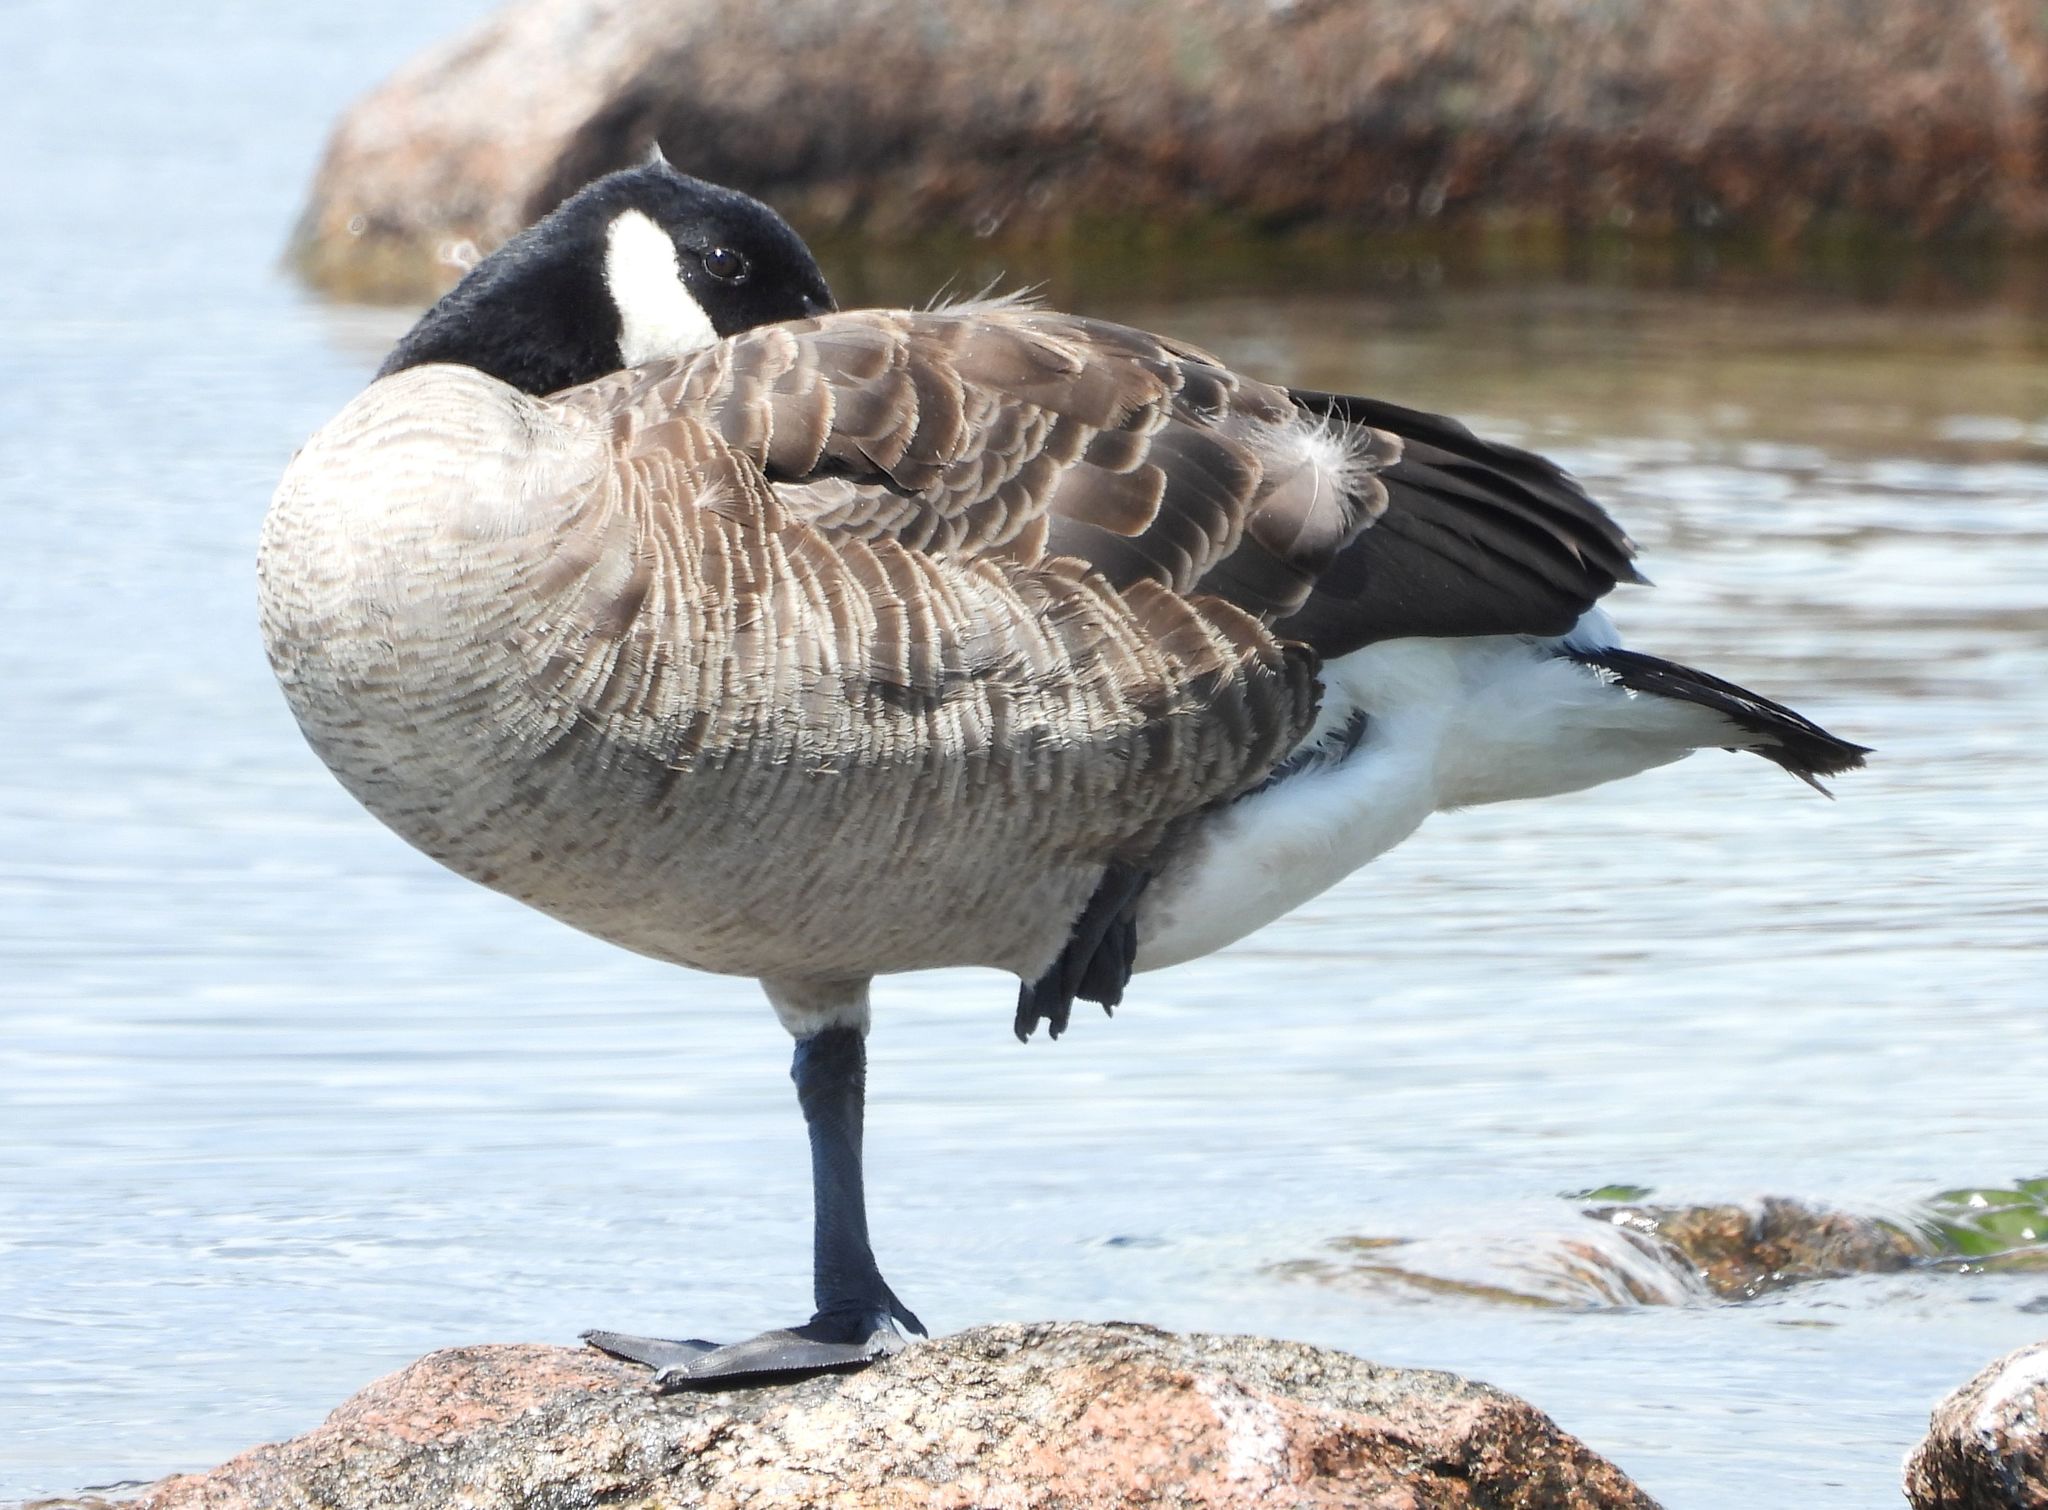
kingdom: Animalia
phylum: Chordata
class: Aves
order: Anseriformes
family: Anatidae
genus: Branta
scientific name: Branta canadensis
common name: Canada goose
